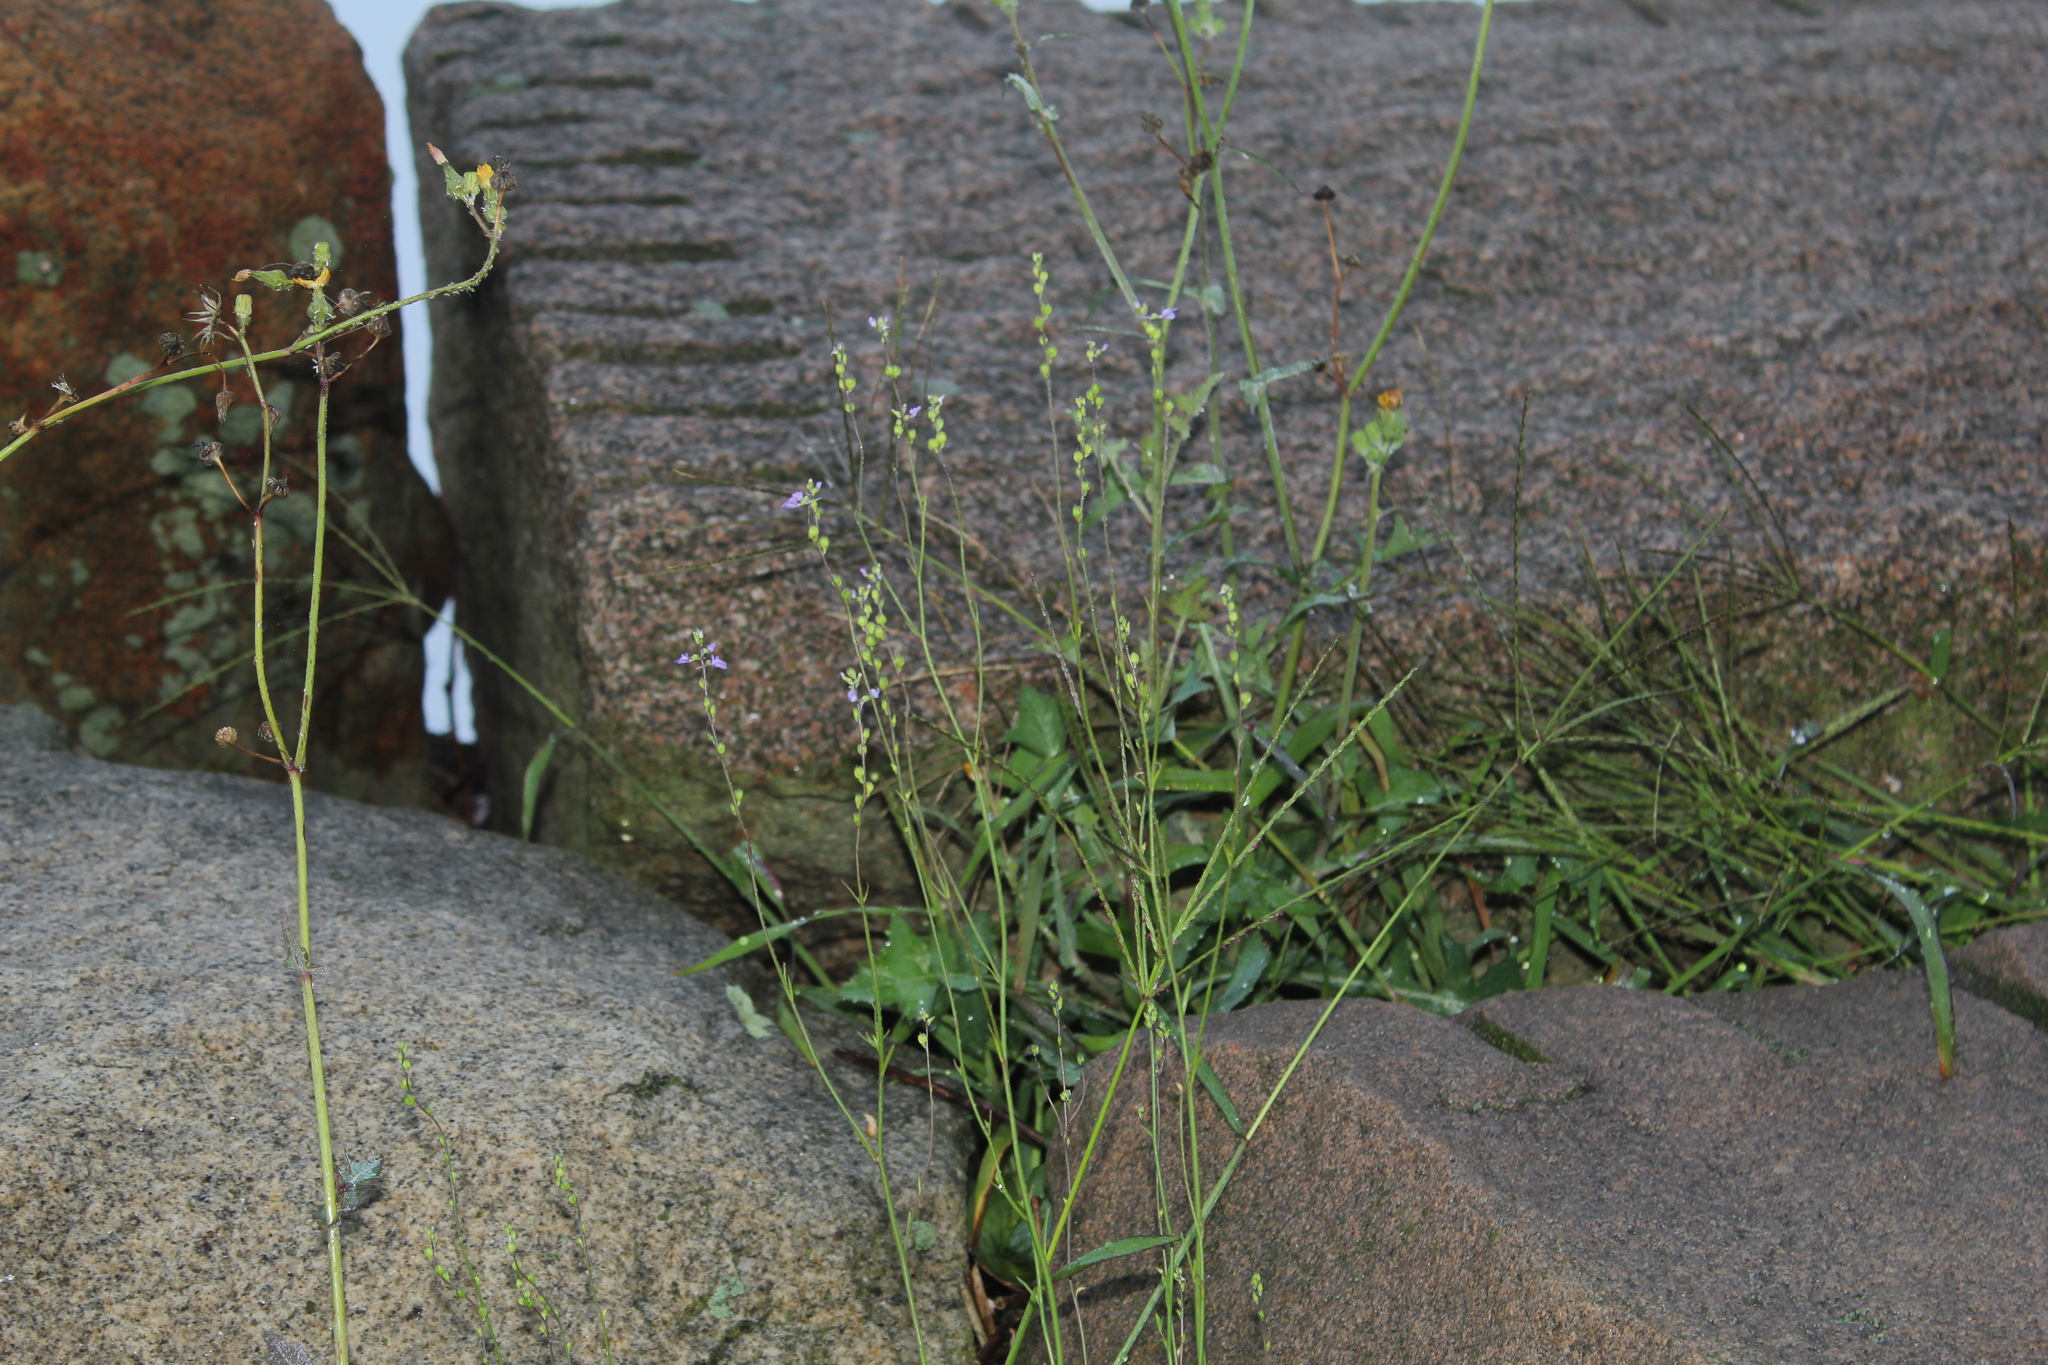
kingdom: Plantae
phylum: Tracheophyta
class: Magnoliopsida
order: Lamiales
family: Plantaginaceae
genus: Nuttallanthus
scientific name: Nuttallanthus canadensis
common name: Blue toadflax
